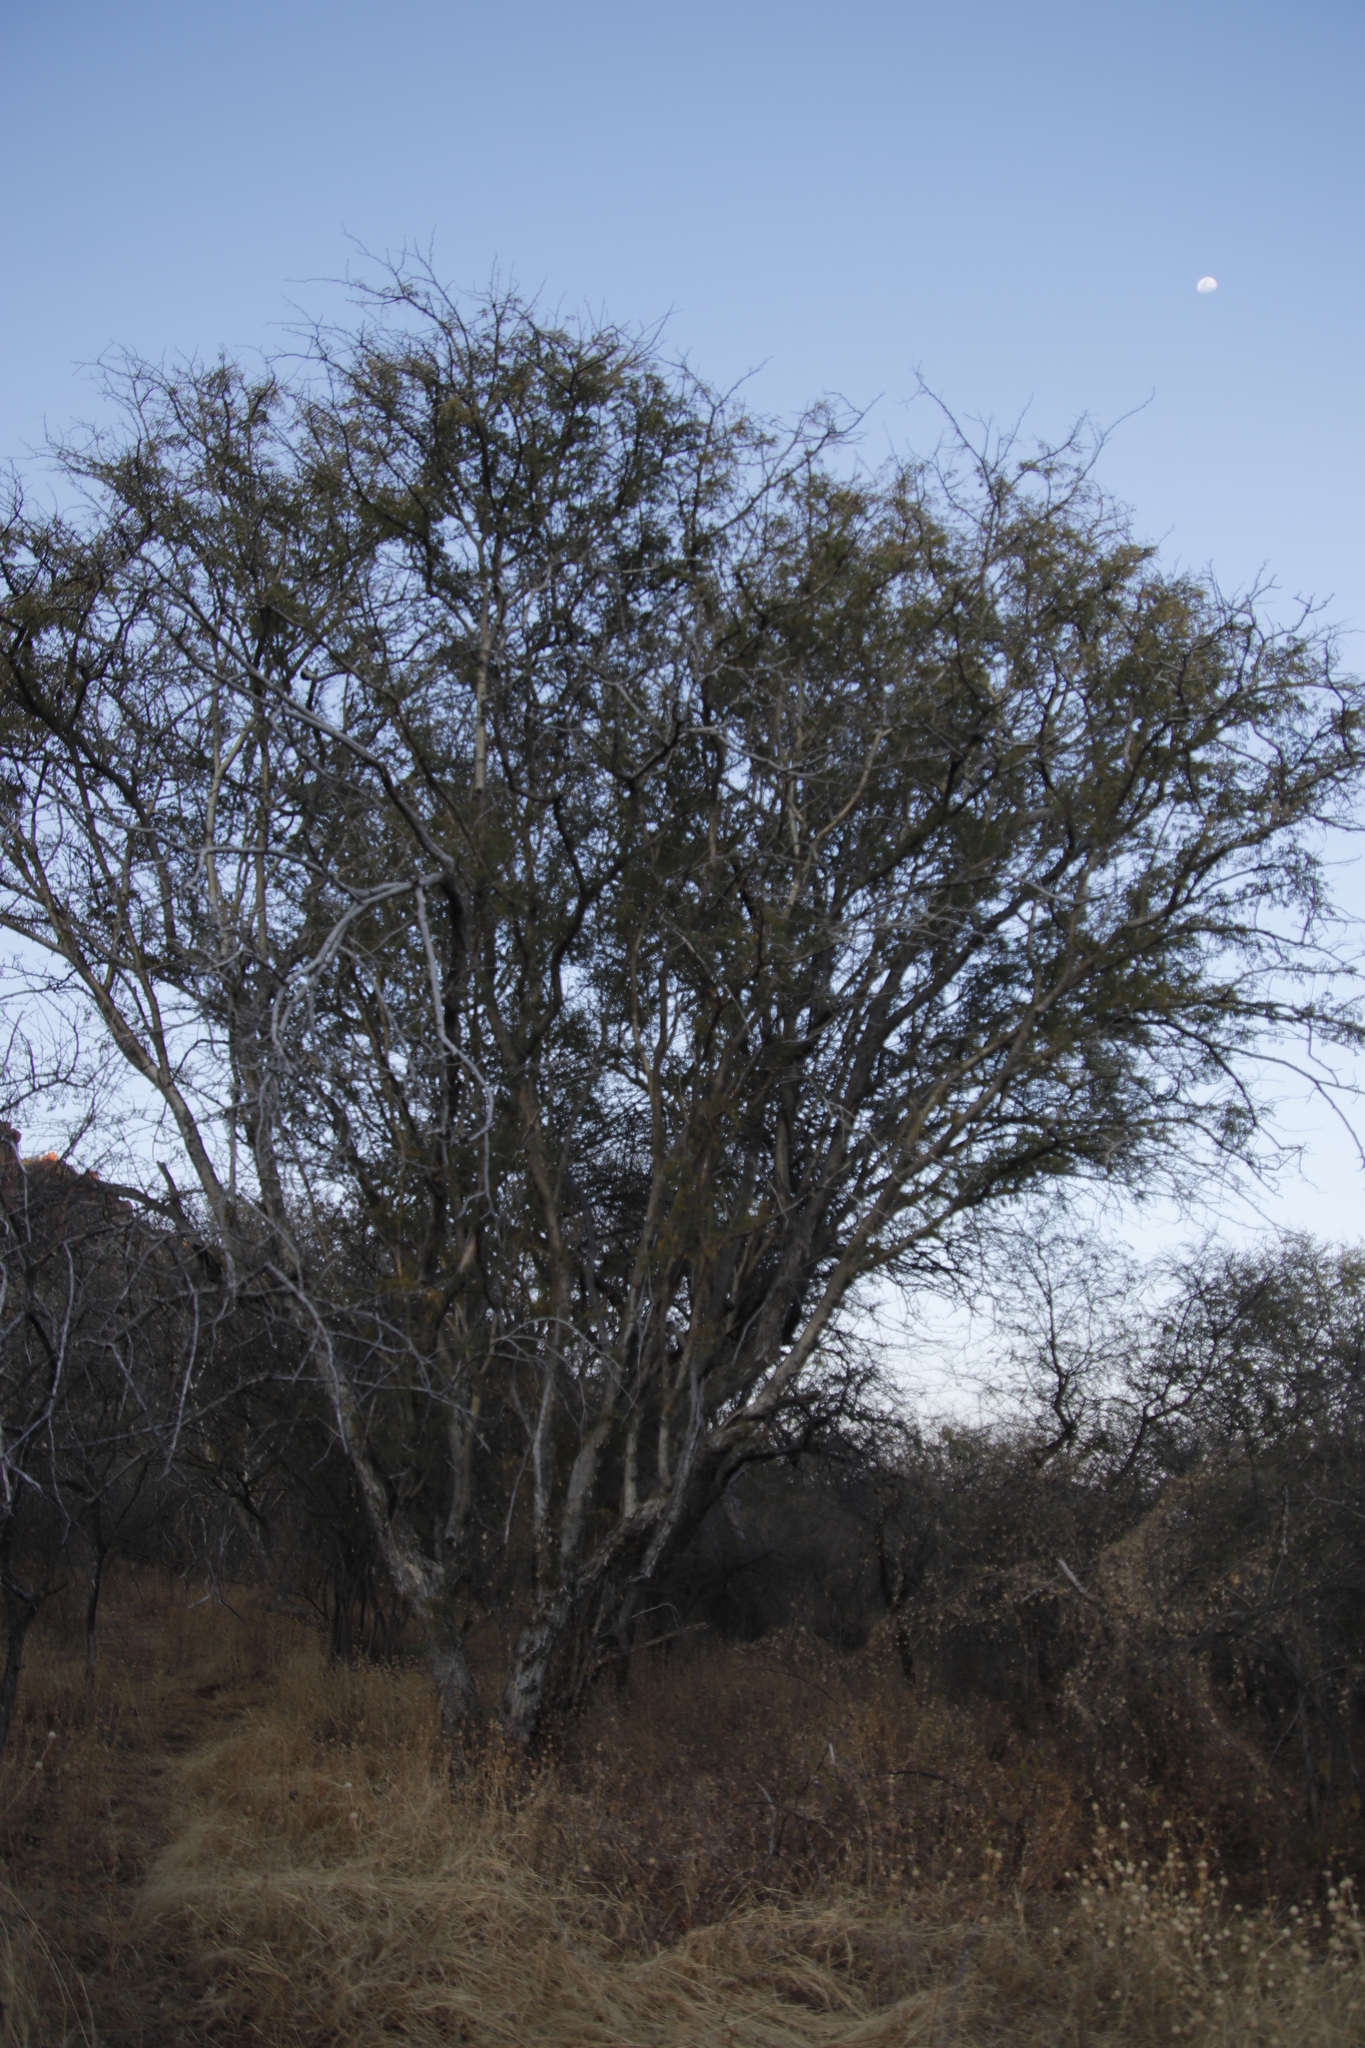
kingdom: Plantae
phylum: Tracheophyta
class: Magnoliopsida
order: Fabales
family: Fabaceae
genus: Senegalia
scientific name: Senegalia erubescens
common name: Bluethorn
